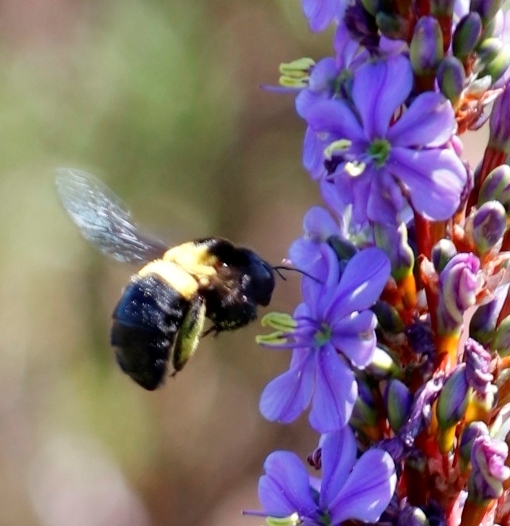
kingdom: Animalia
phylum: Arthropoda
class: Insecta
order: Hymenoptera
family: Apidae
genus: Xylocopa
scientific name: Xylocopa caffra
